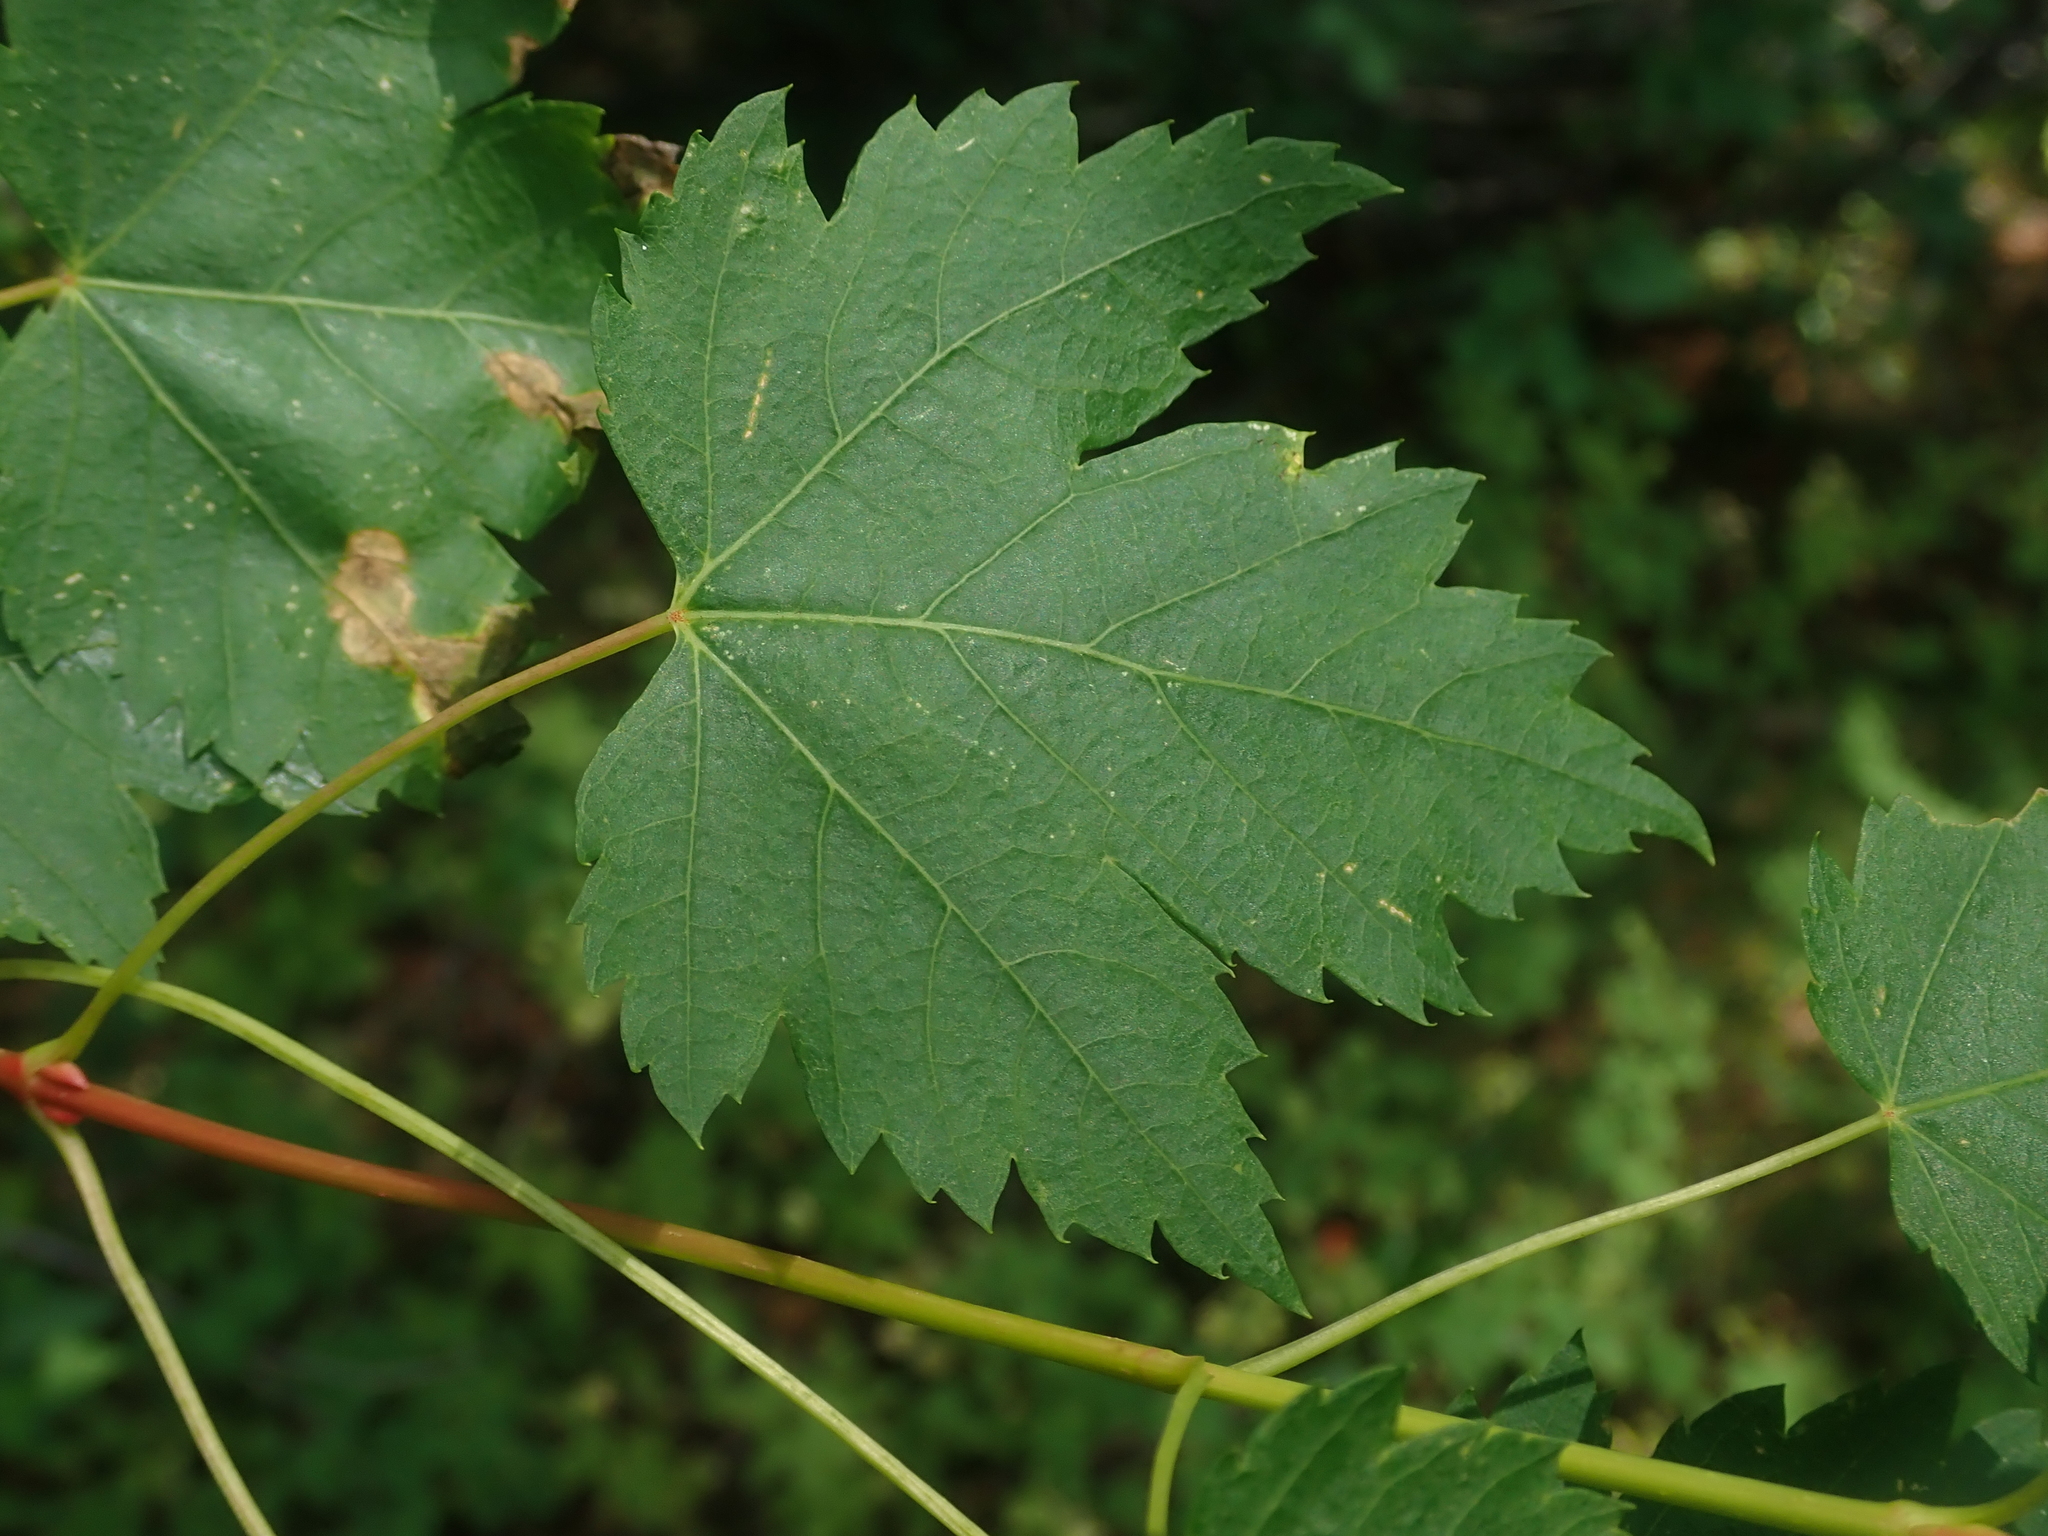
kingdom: Plantae
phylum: Tracheophyta
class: Magnoliopsida
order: Sapindales
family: Sapindaceae
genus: Acer
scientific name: Acer glabrum
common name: Rocky mountain maple
